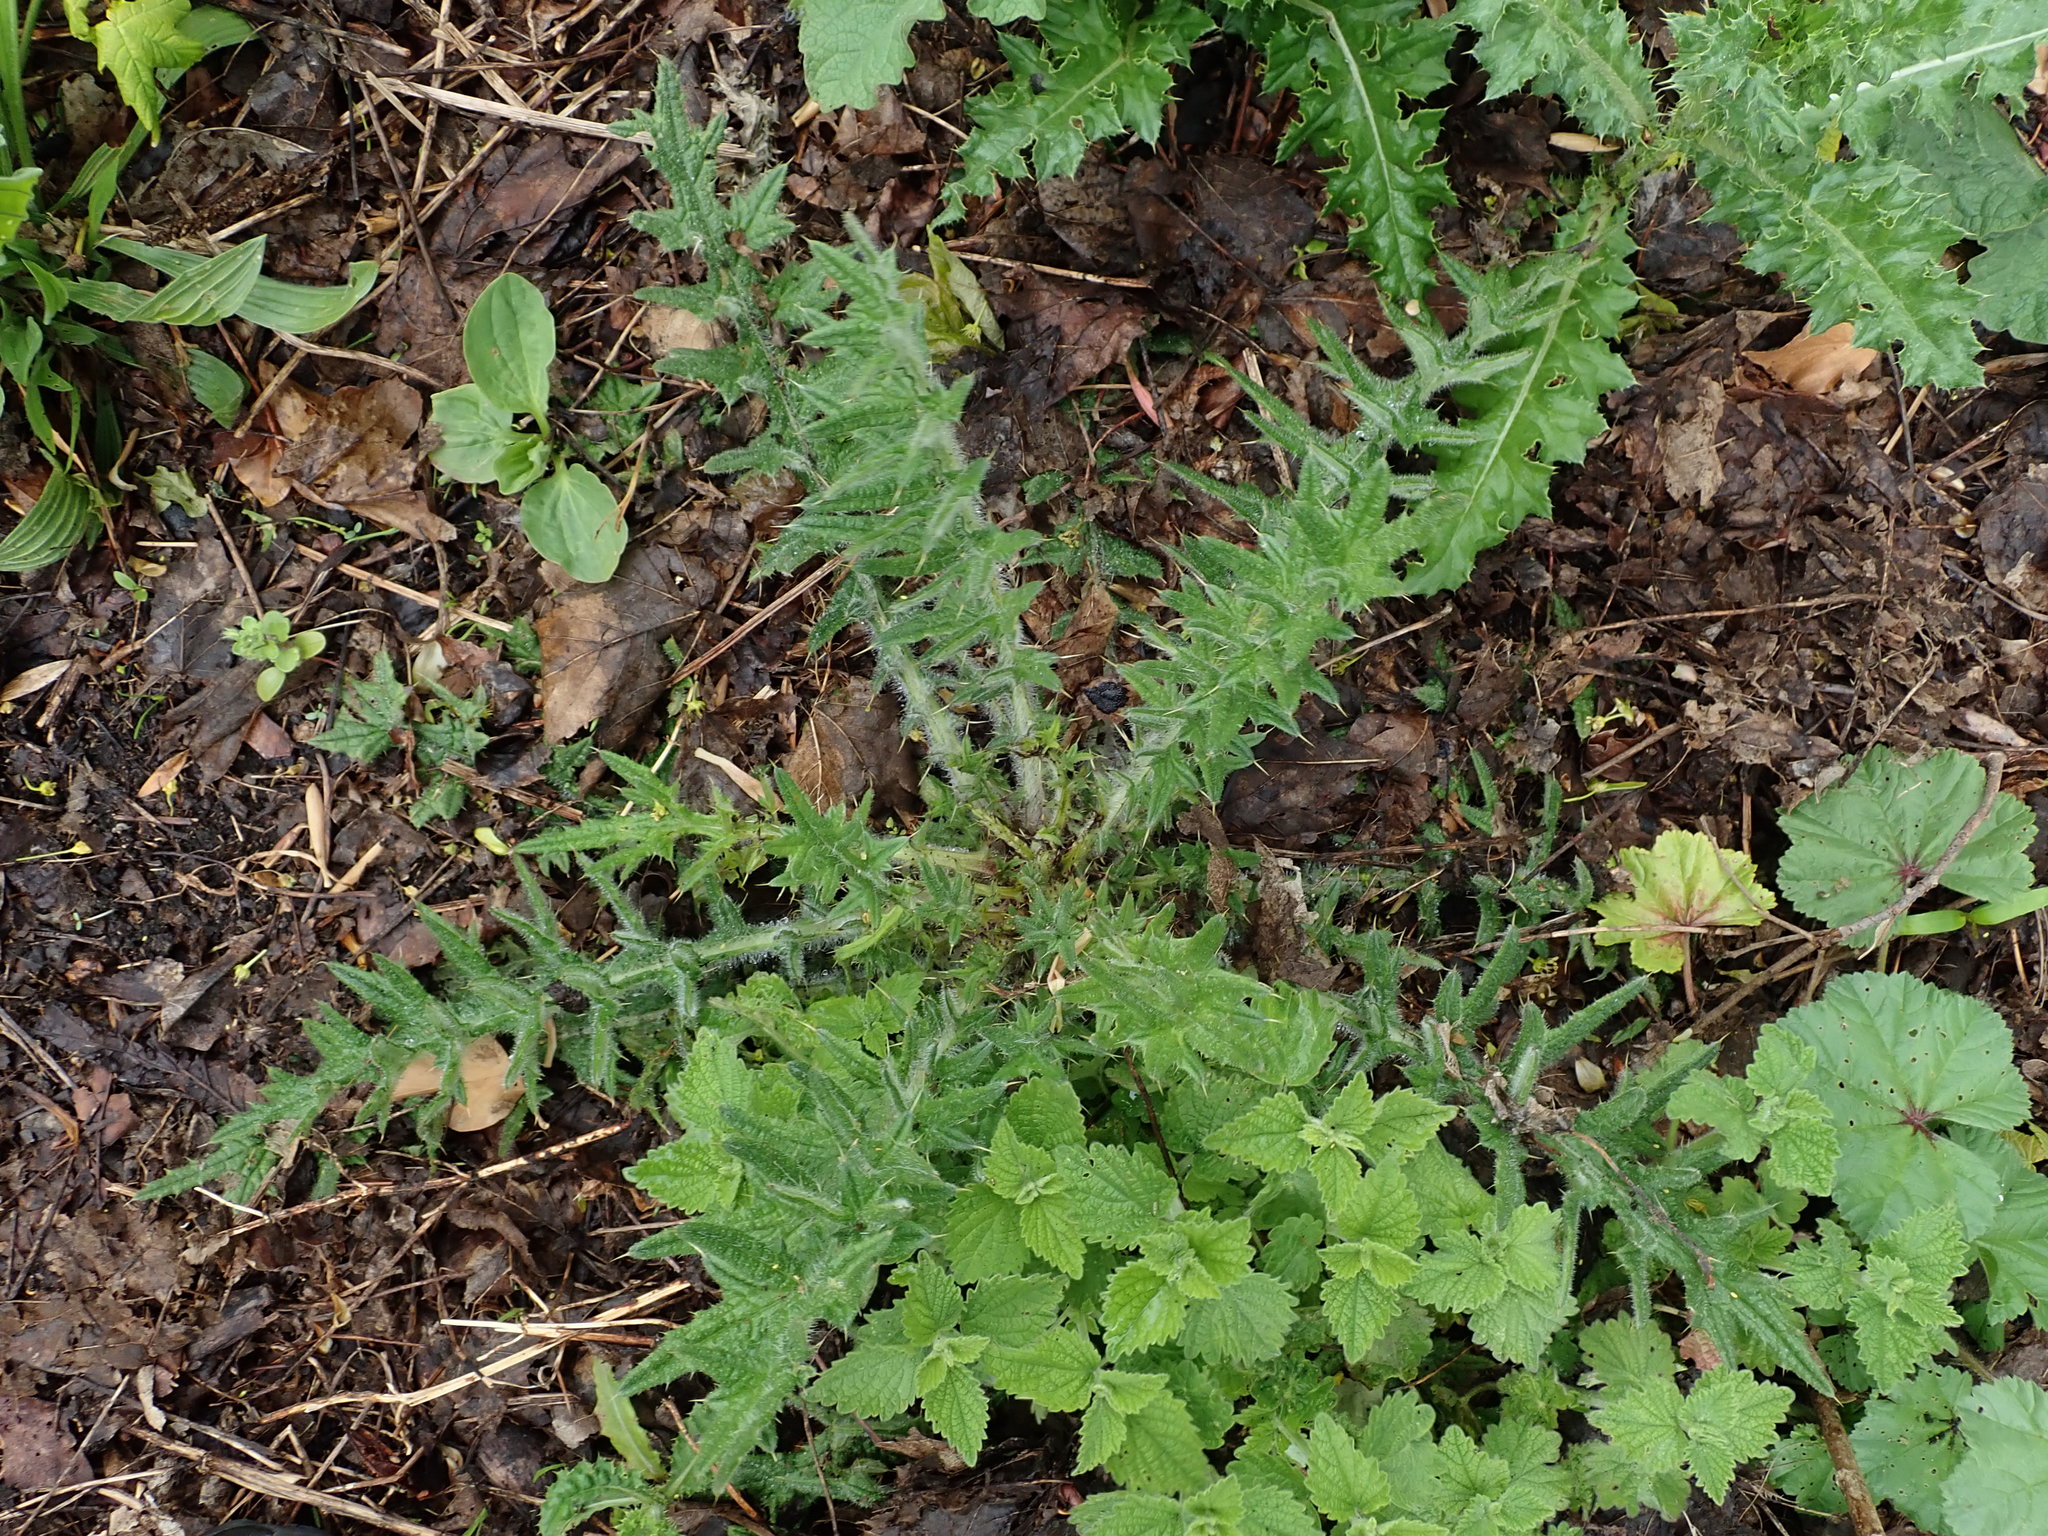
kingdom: Plantae
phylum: Tracheophyta
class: Magnoliopsida
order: Asterales
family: Asteraceae
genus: Cirsium
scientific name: Cirsium vulgare
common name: Bull thistle
